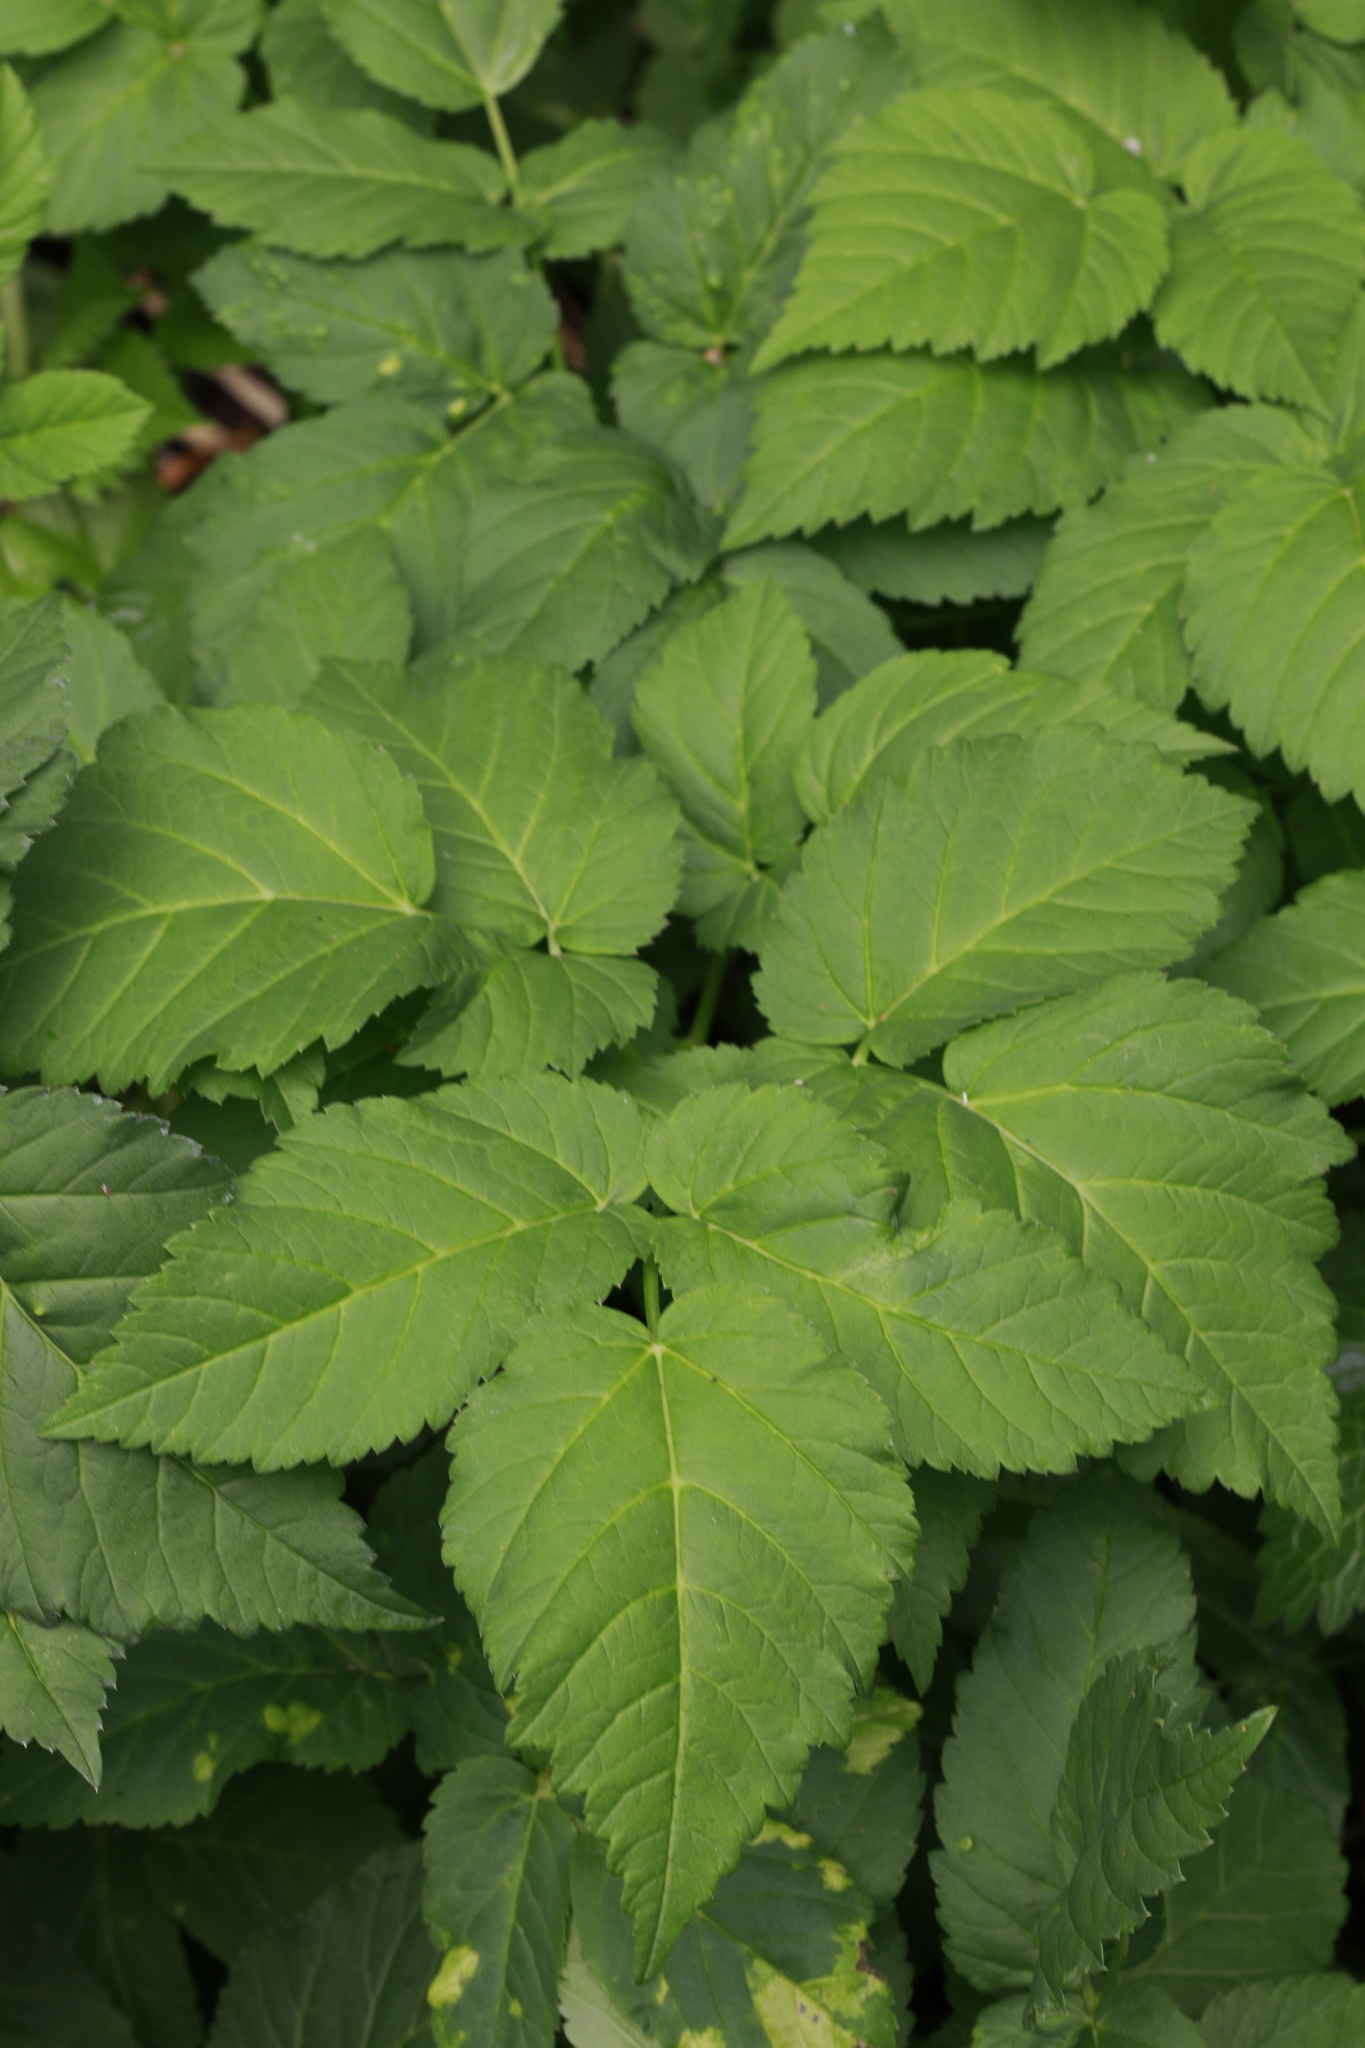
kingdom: Plantae
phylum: Tracheophyta
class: Magnoliopsida
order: Apiales
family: Apiaceae
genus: Aegopodium
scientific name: Aegopodium podagraria
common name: Ground-elder
